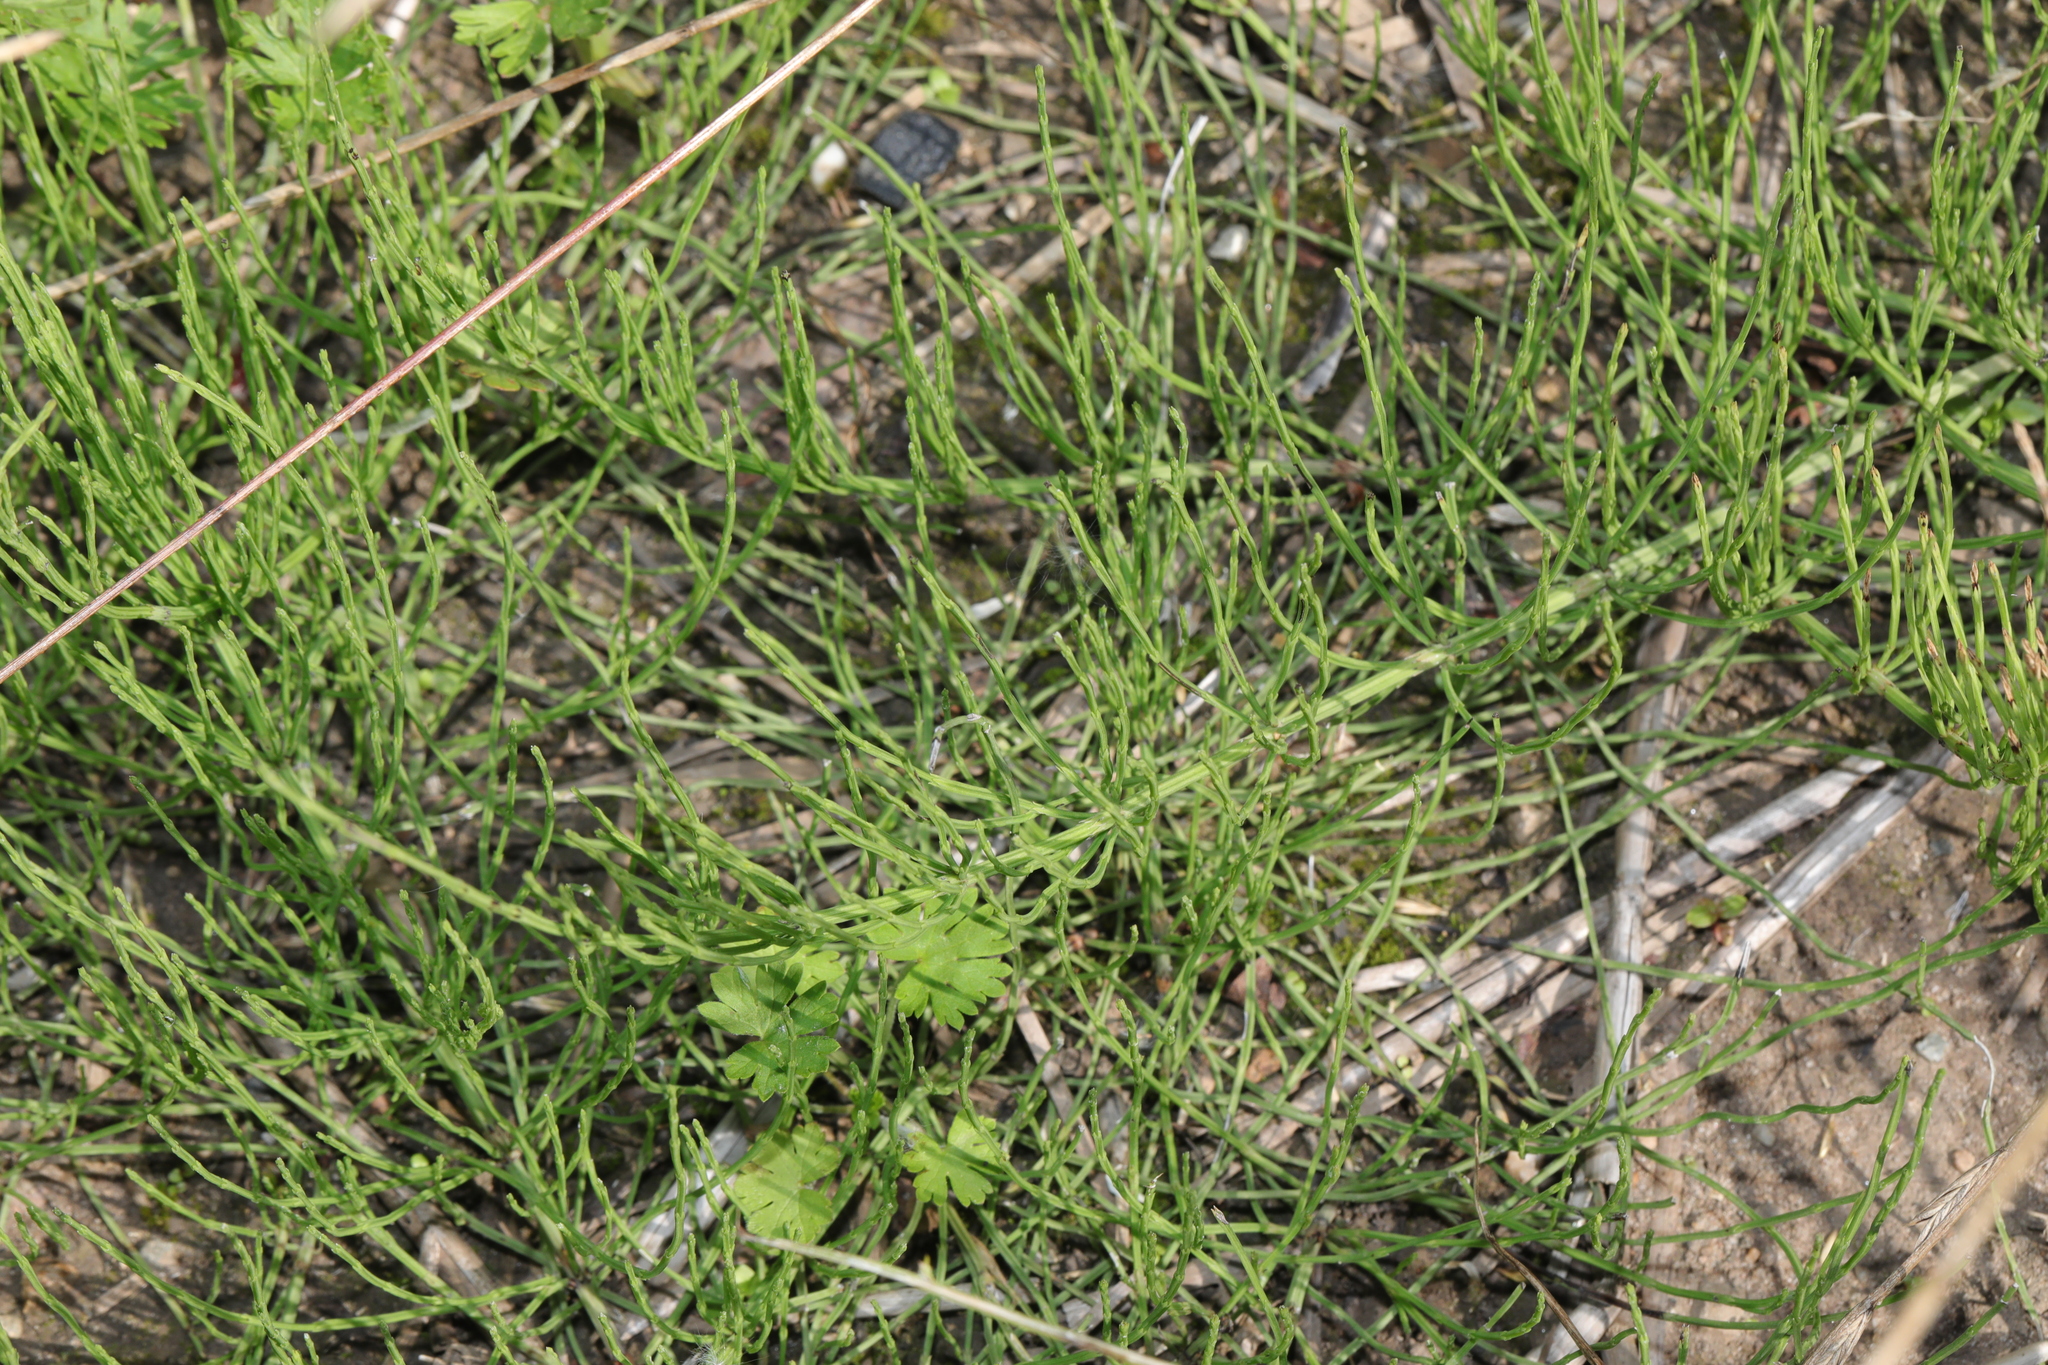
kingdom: Plantae
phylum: Tracheophyta
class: Polypodiopsida
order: Equisetales
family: Equisetaceae
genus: Equisetum
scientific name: Equisetum arvense
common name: Field horsetail
